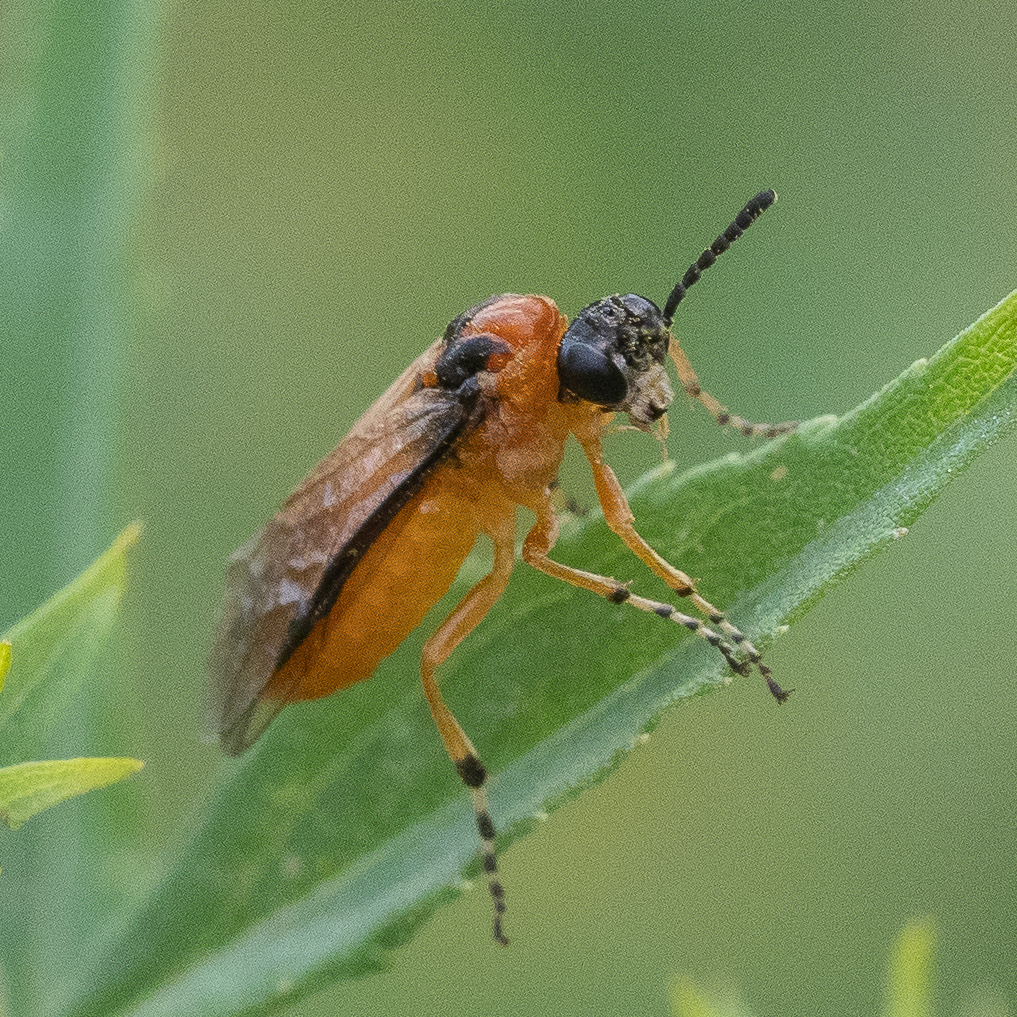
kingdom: Animalia
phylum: Arthropoda
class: Insecta
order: Hymenoptera
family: Tenthredinidae
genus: Athalia
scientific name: Athalia rosae
